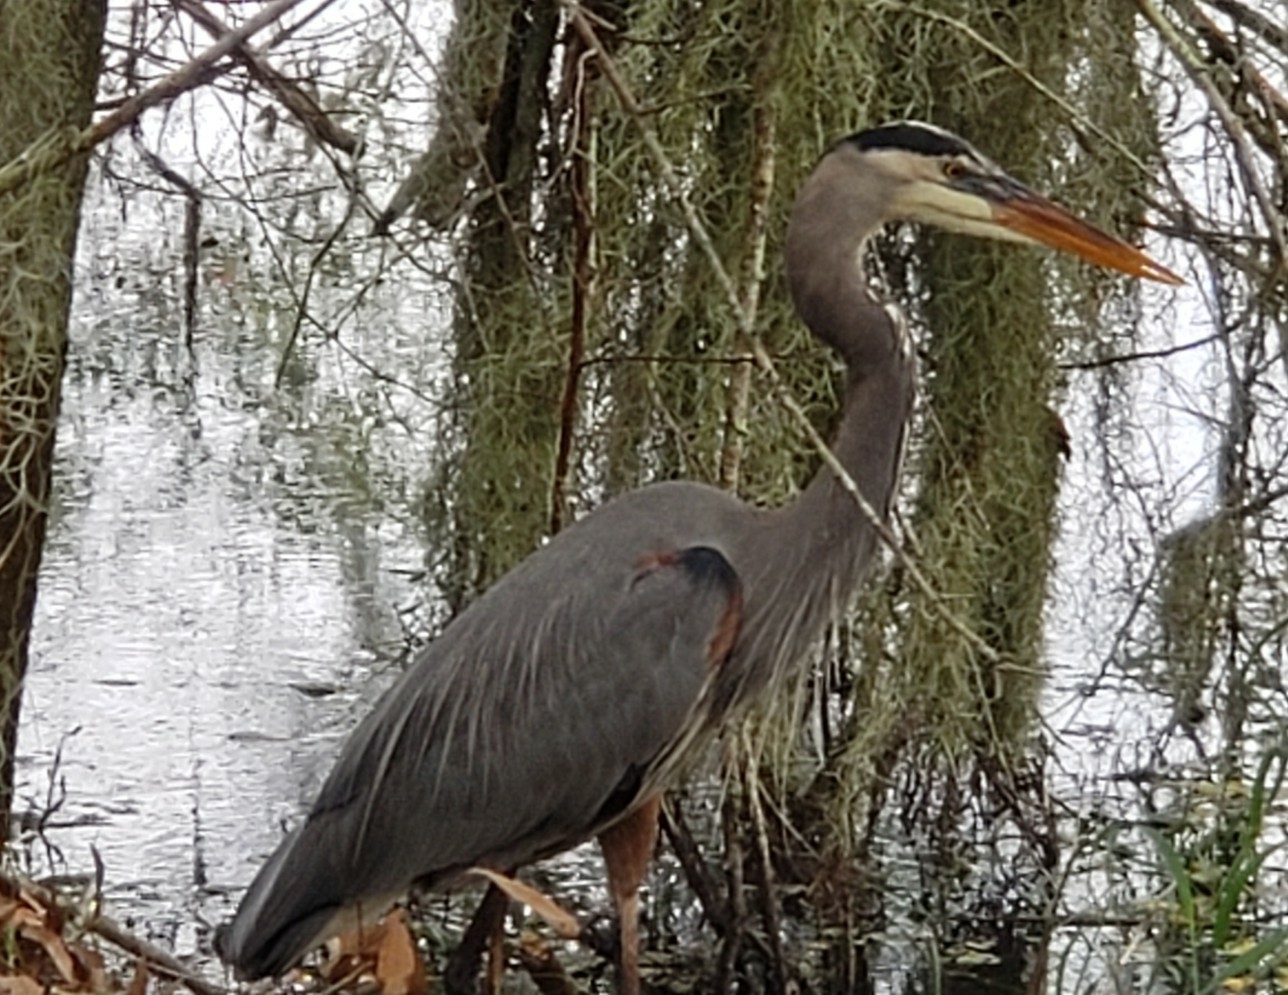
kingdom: Animalia
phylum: Chordata
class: Aves
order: Pelecaniformes
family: Ardeidae
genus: Ardea
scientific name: Ardea herodias
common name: Great blue heron
